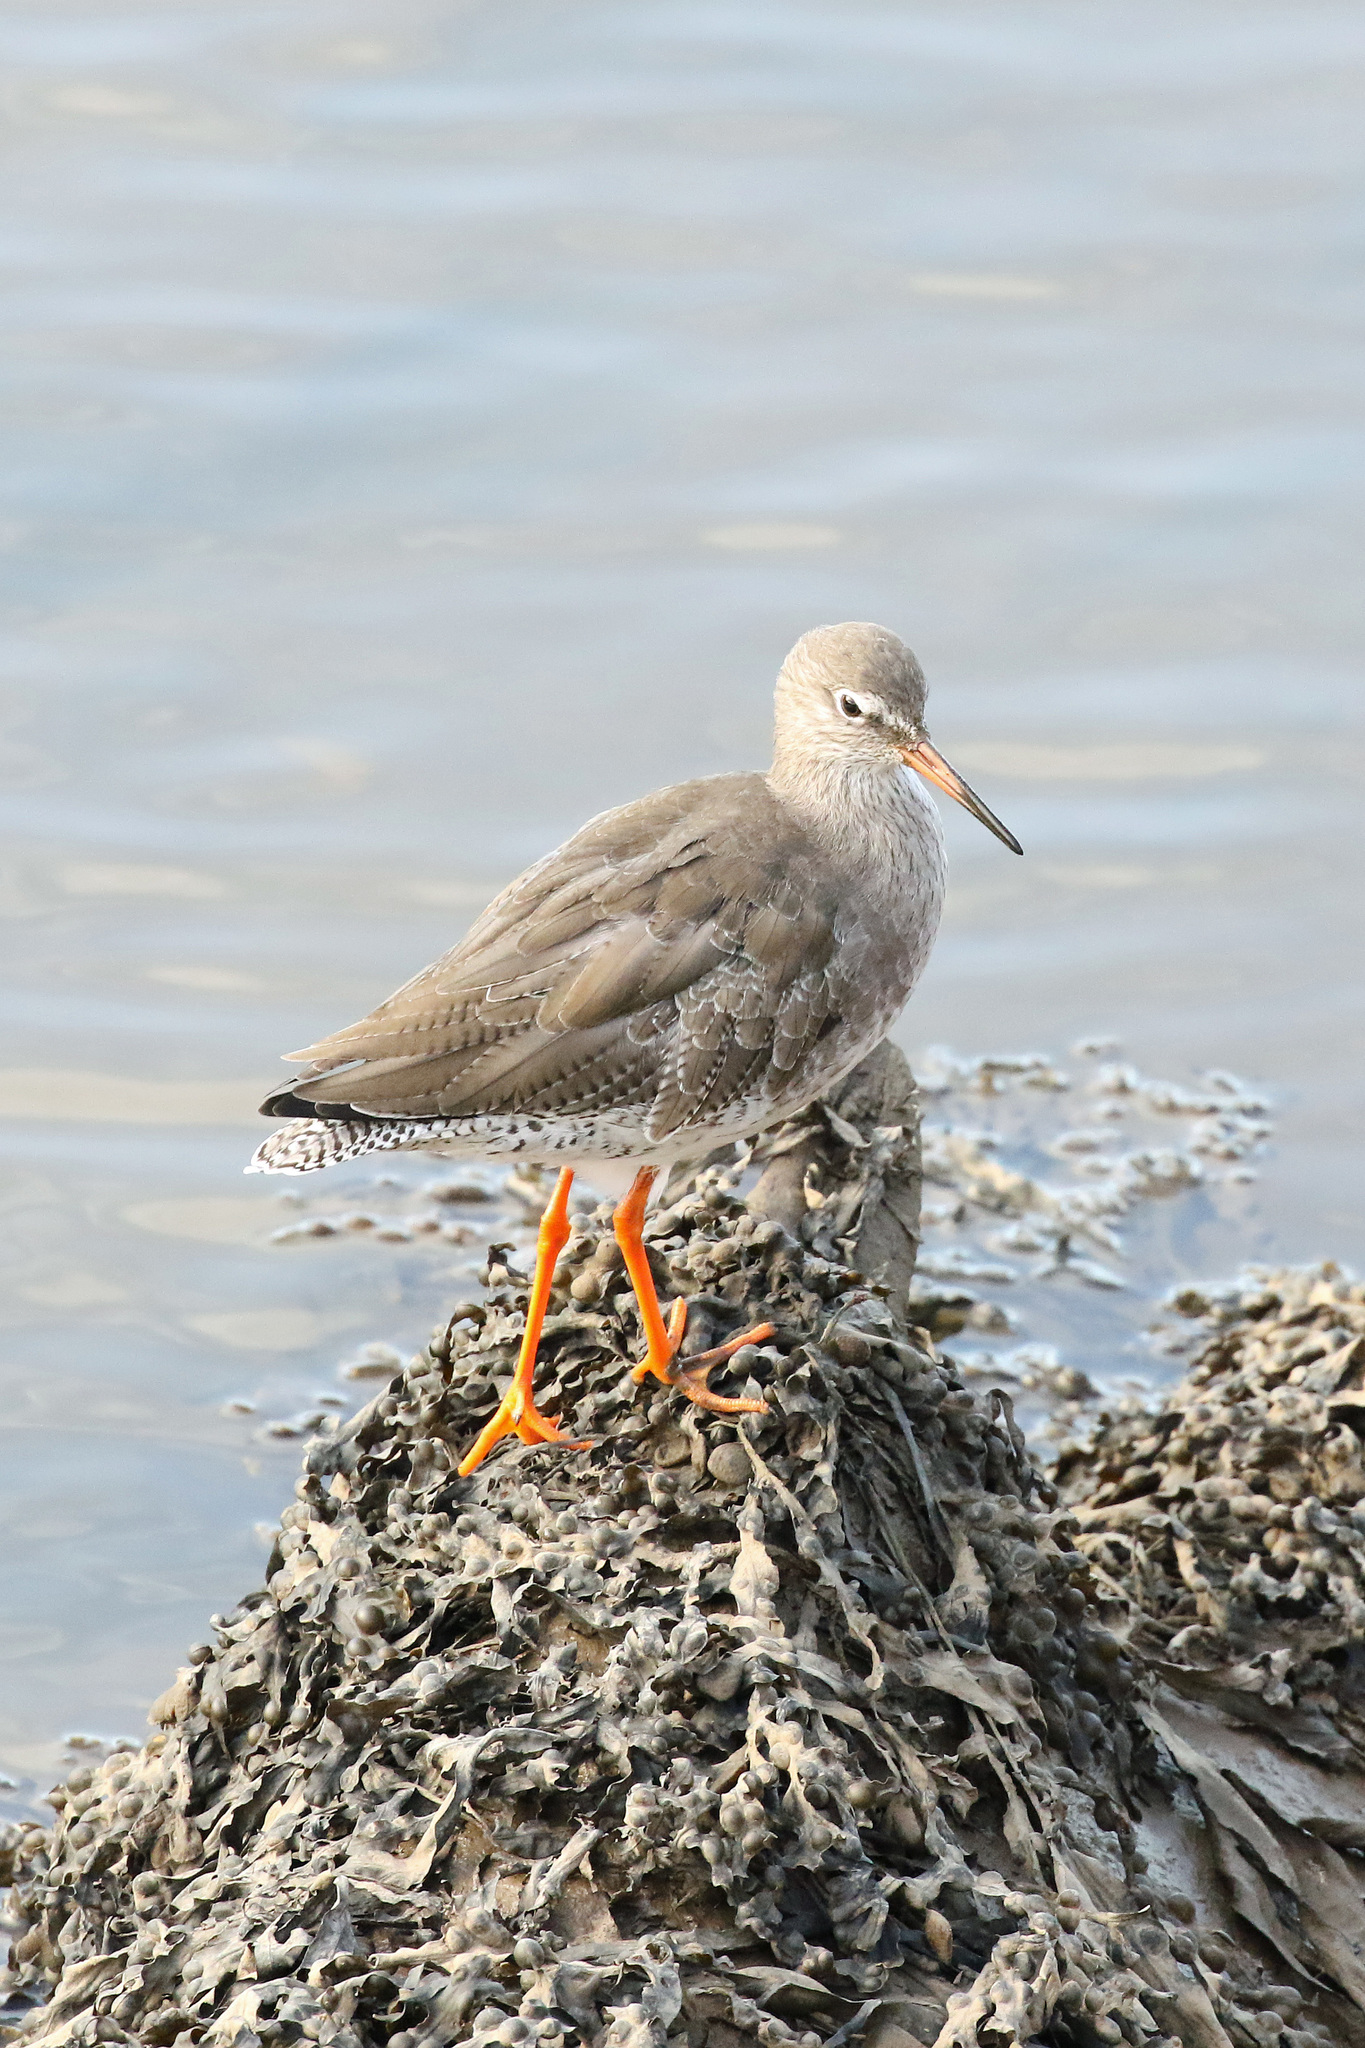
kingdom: Animalia
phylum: Chordata
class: Aves
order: Charadriiformes
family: Scolopacidae
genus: Tringa
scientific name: Tringa totanus
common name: Common redshank
